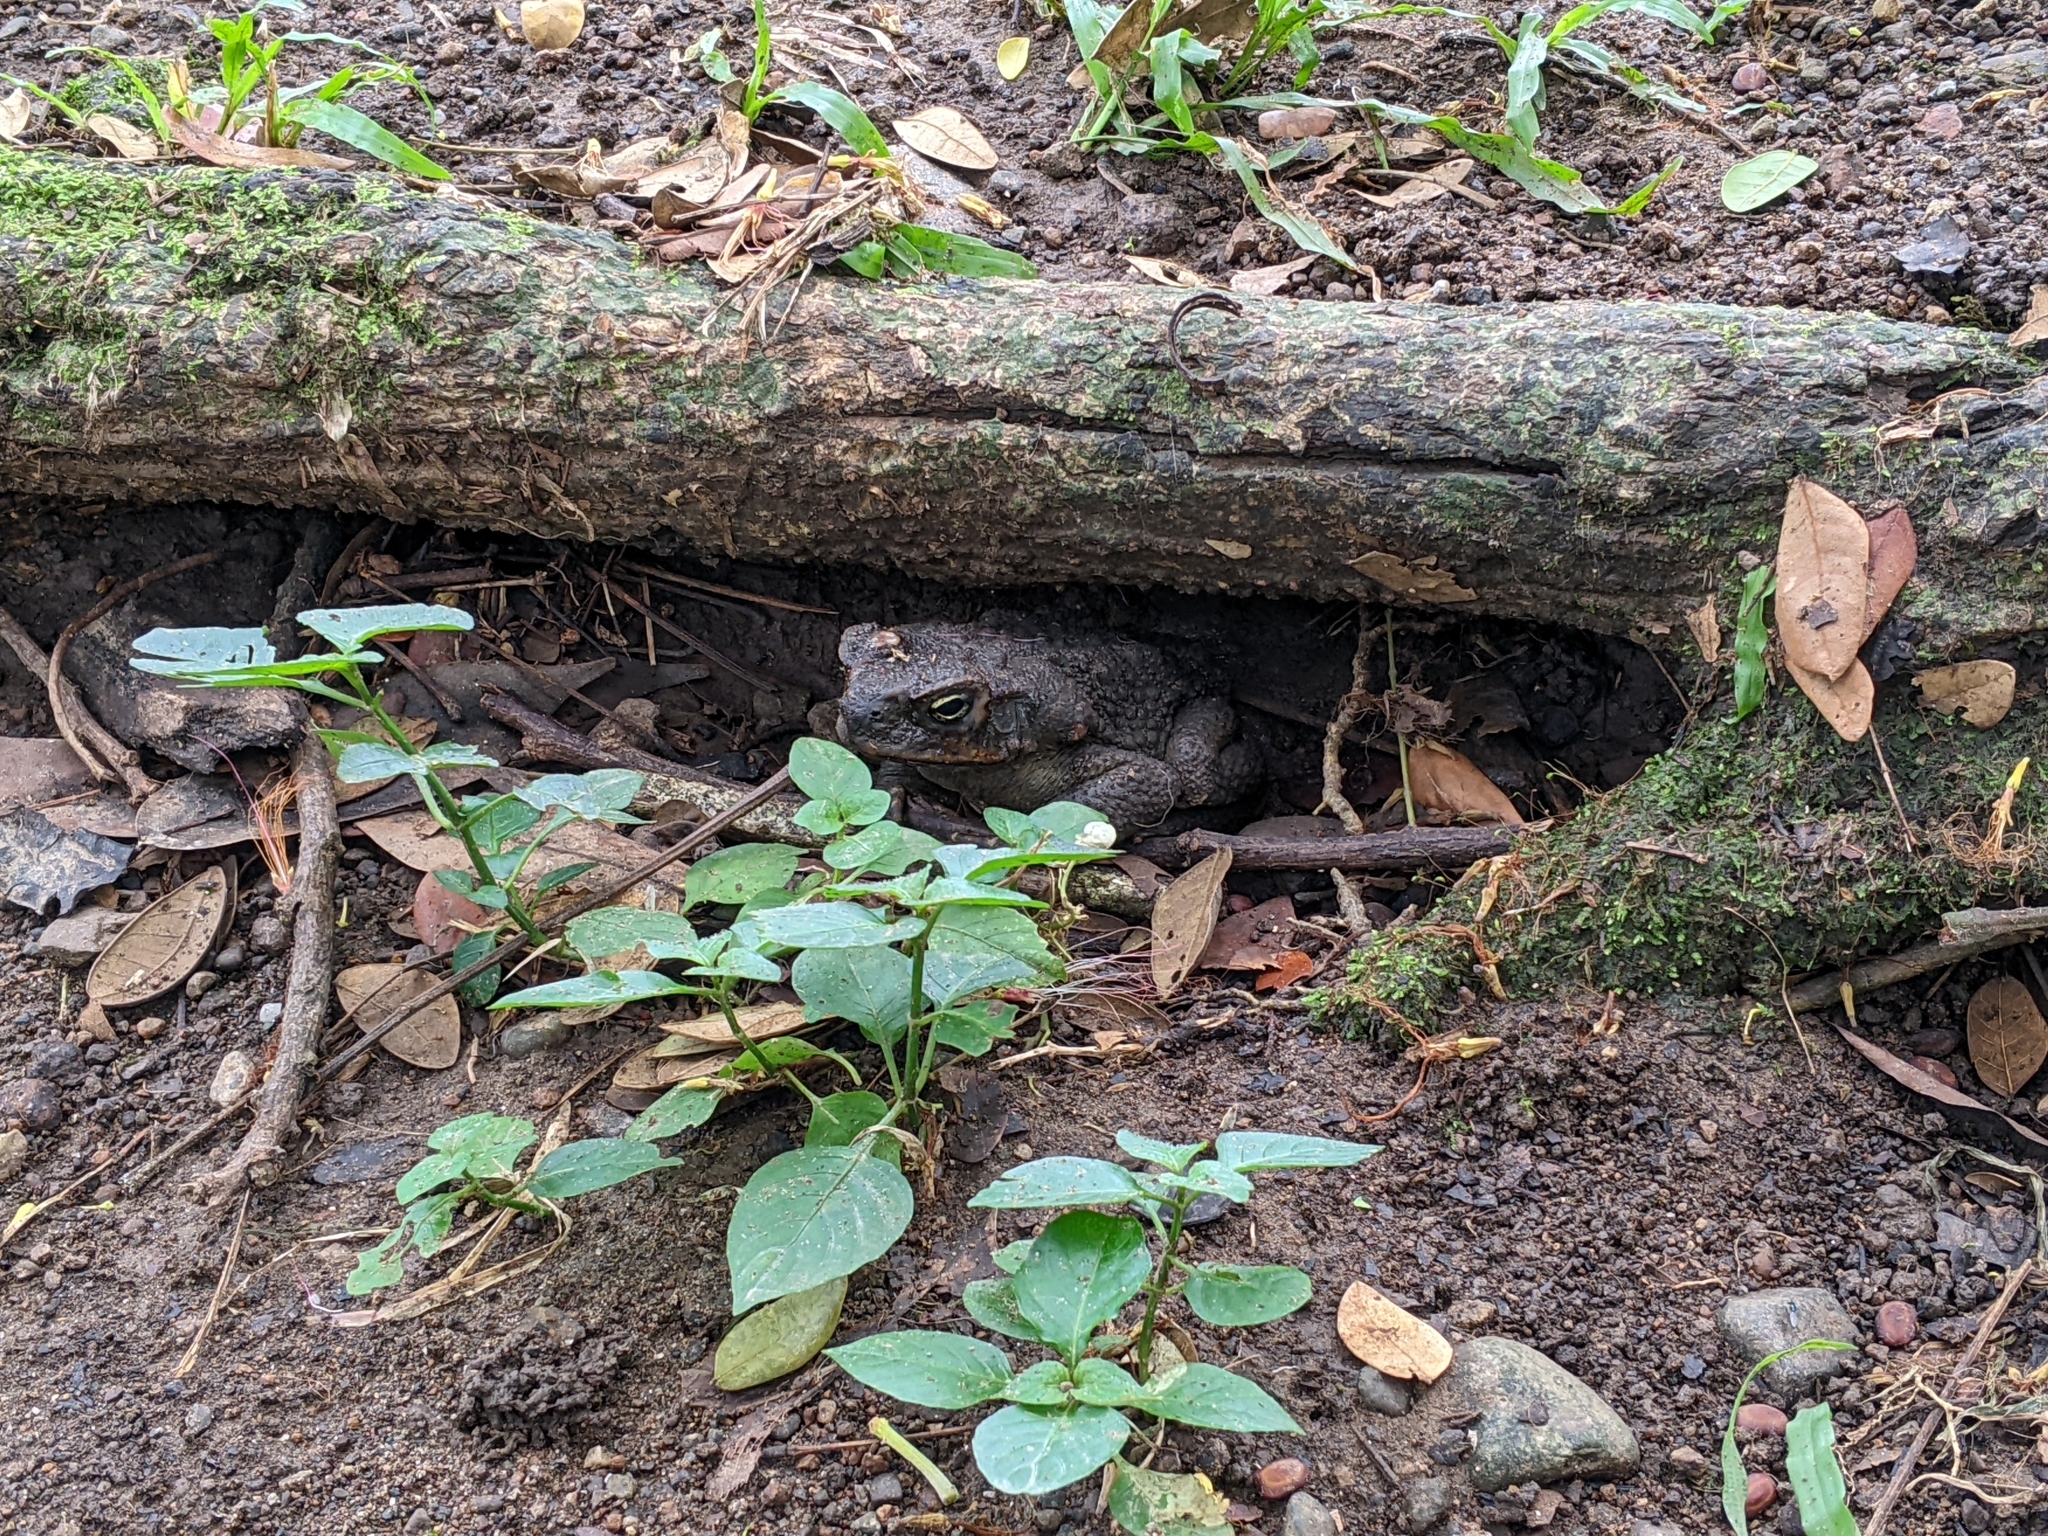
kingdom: Animalia
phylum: Chordata
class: Amphibia
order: Anura
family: Bufonidae
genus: Rhinella
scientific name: Rhinella marina
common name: Cane toad
